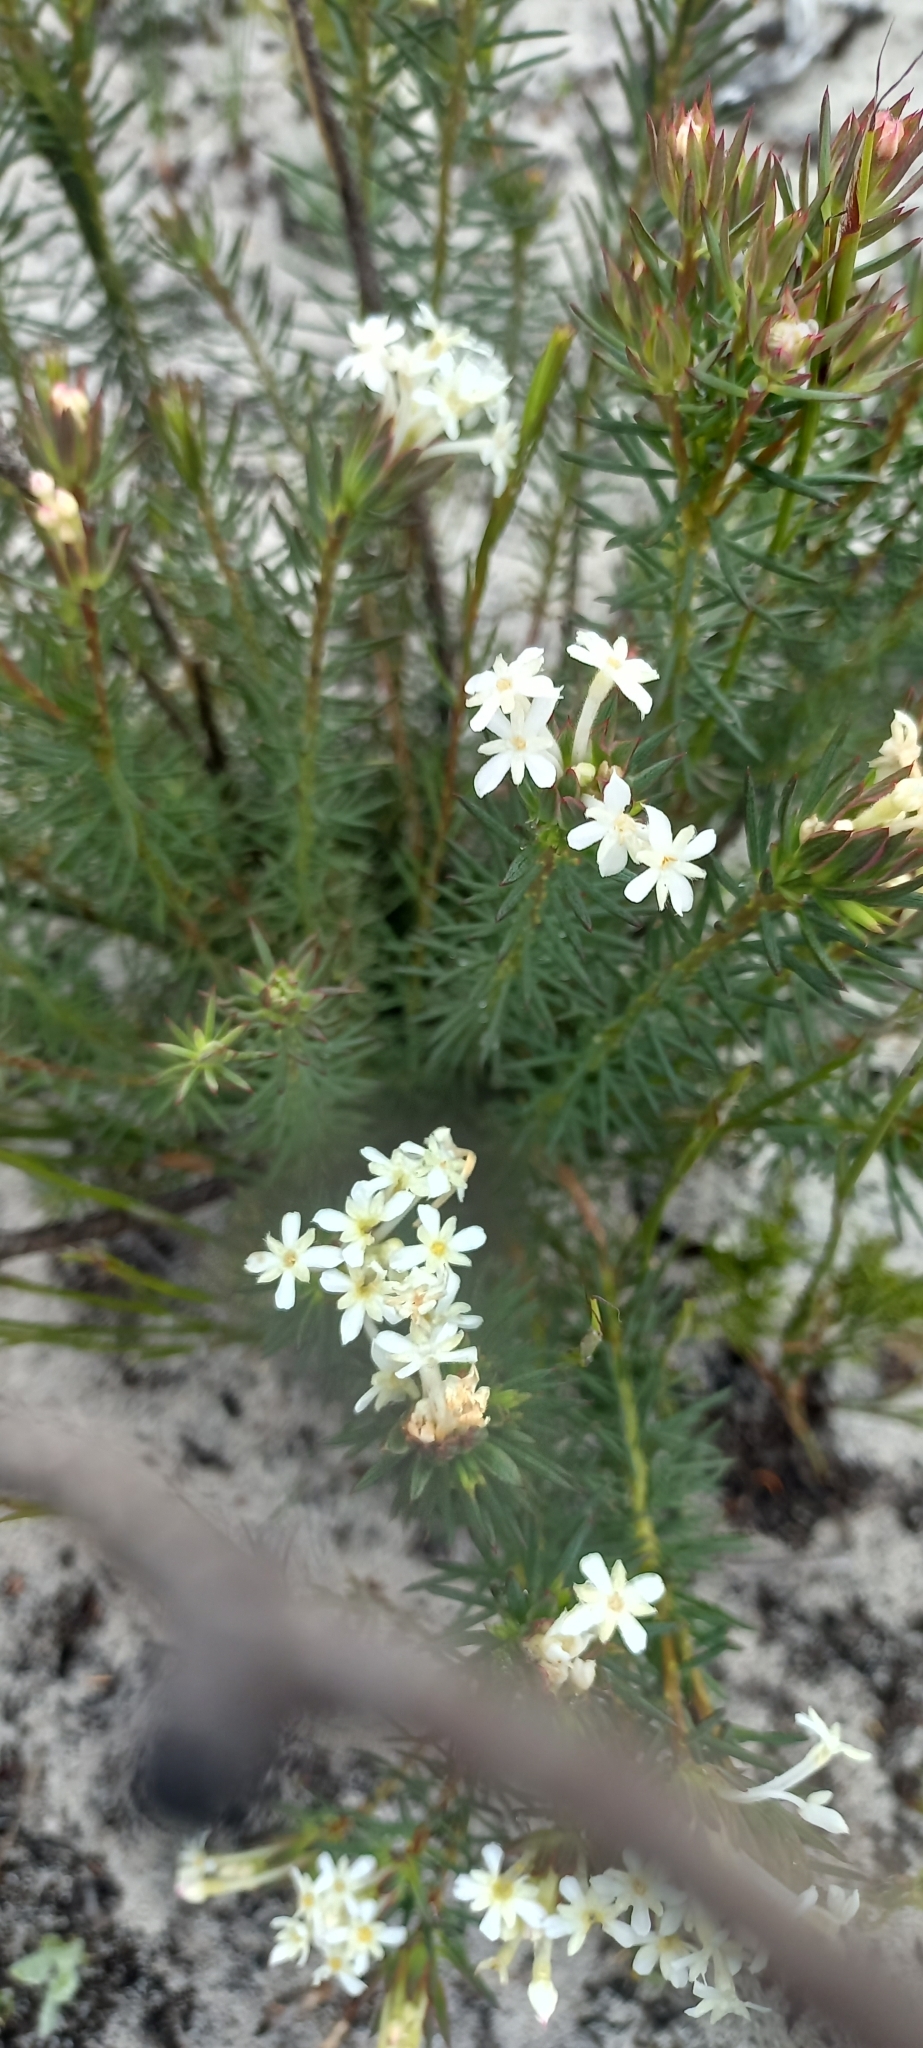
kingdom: Plantae
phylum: Tracheophyta
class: Magnoliopsida
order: Malvales
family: Thymelaeaceae
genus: Gnidia
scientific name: Gnidia pinifolia
